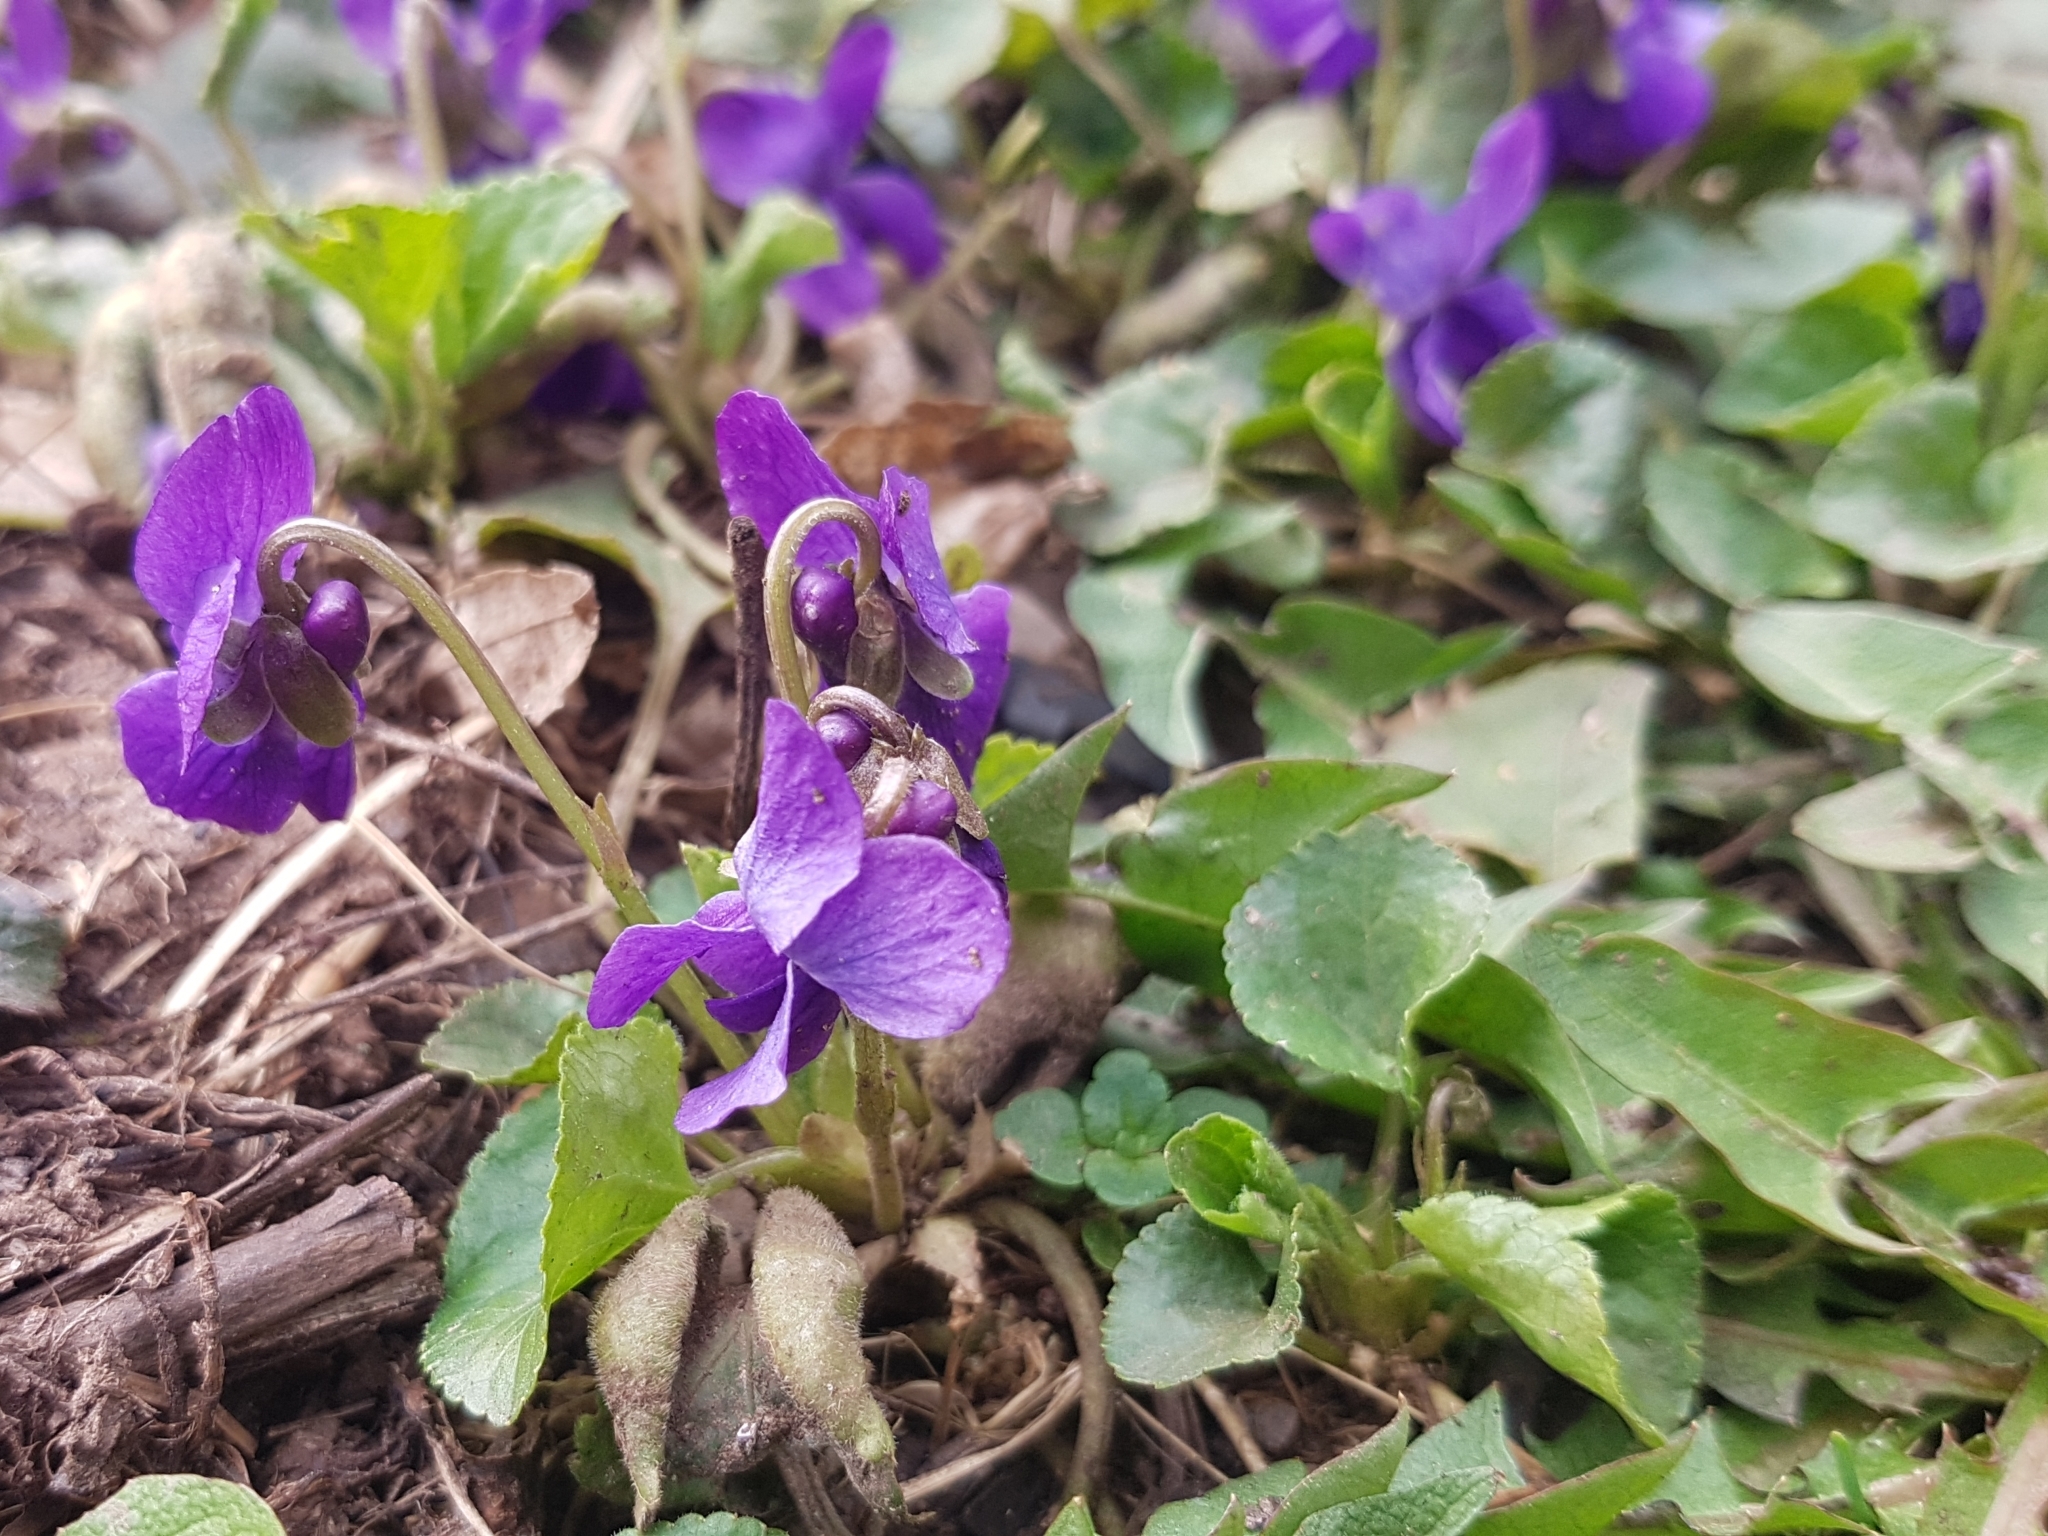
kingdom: Plantae
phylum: Tracheophyta
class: Magnoliopsida
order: Malpighiales
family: Violaceae
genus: Viola
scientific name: Viola odorata
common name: Sweet violet
